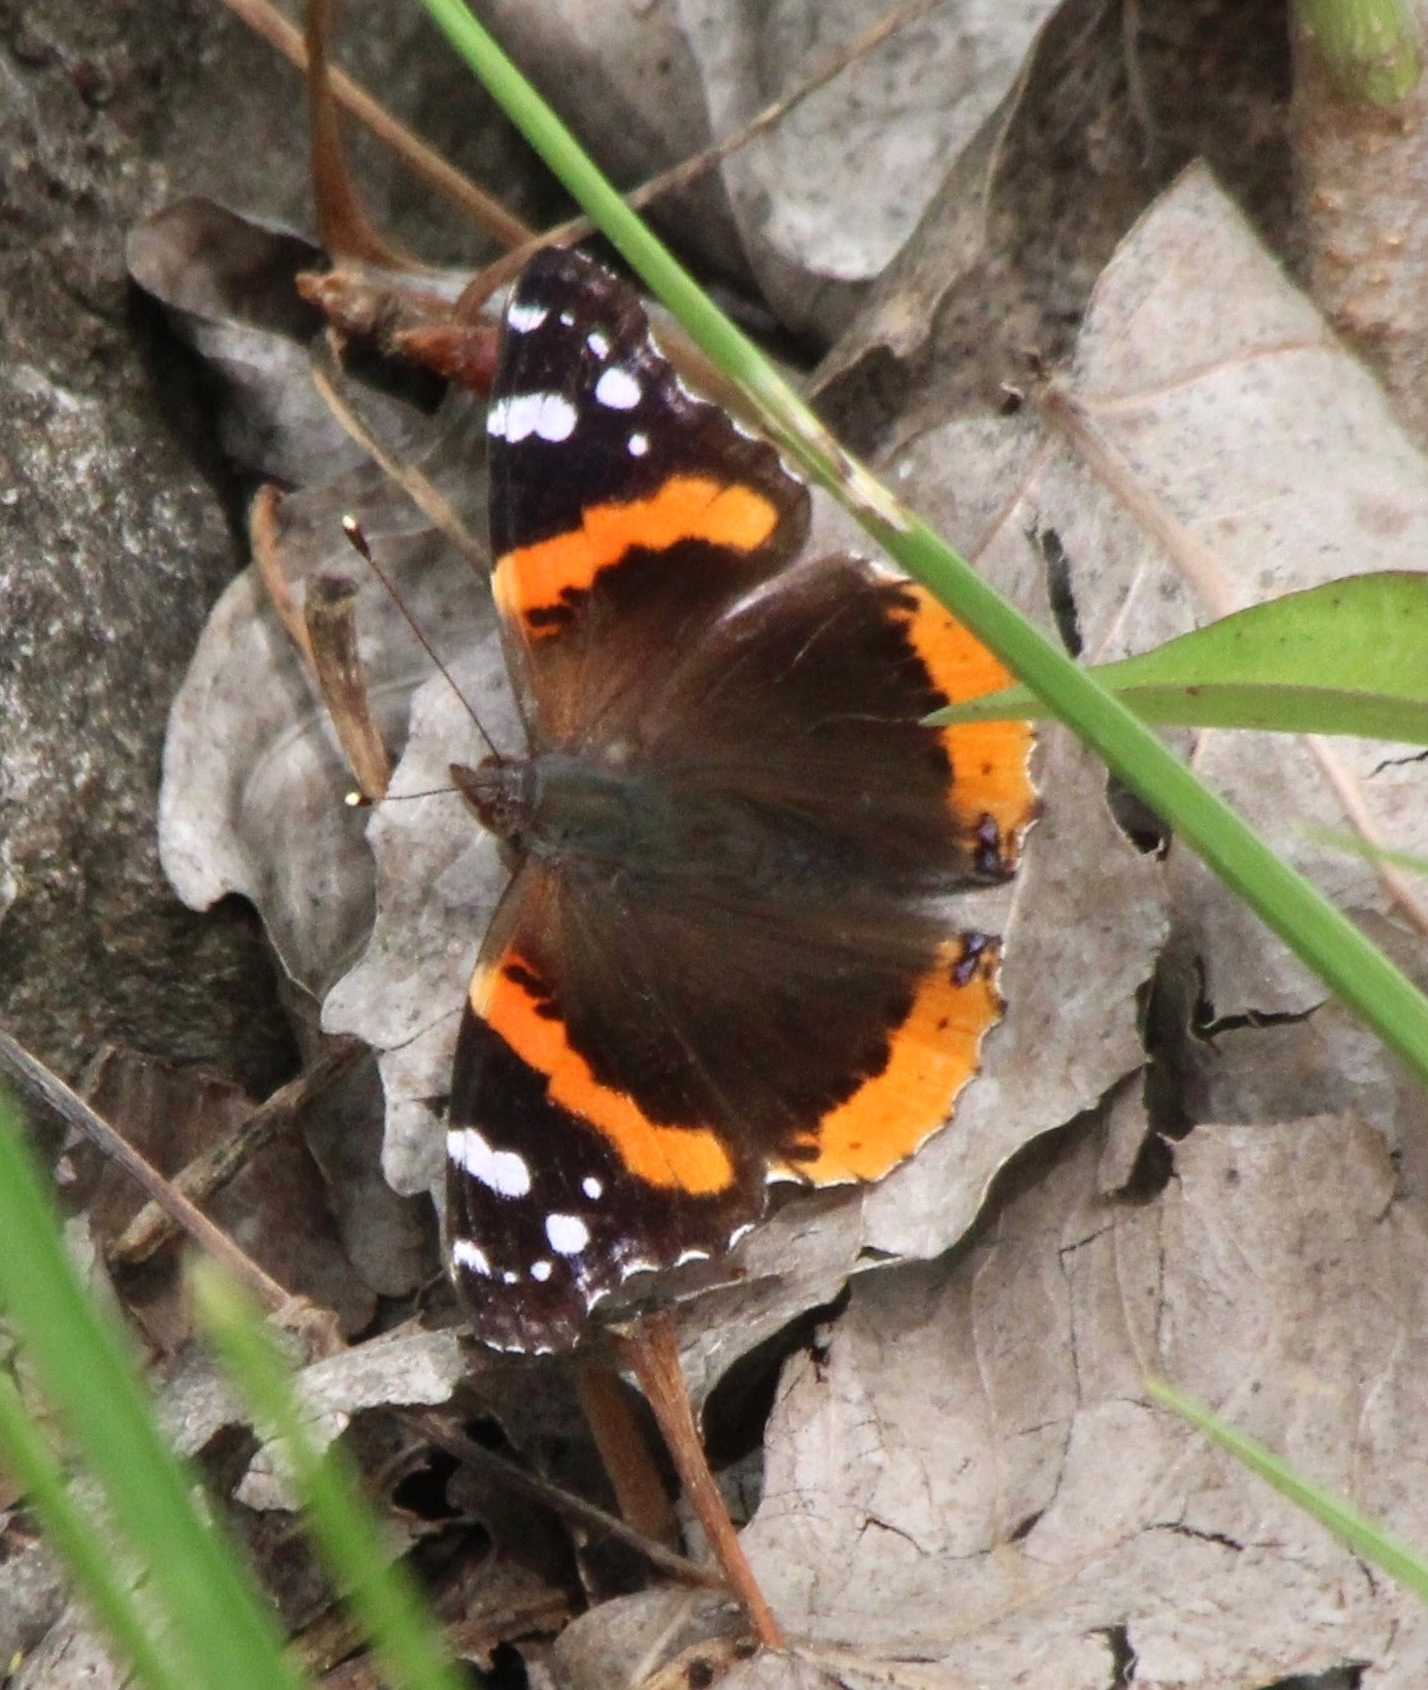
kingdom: Animalia
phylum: Arthropoda
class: Insecta
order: Lepidoptera
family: Nymphalidae
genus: Vanessa
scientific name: Vanessa atalanta
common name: Red admiral
